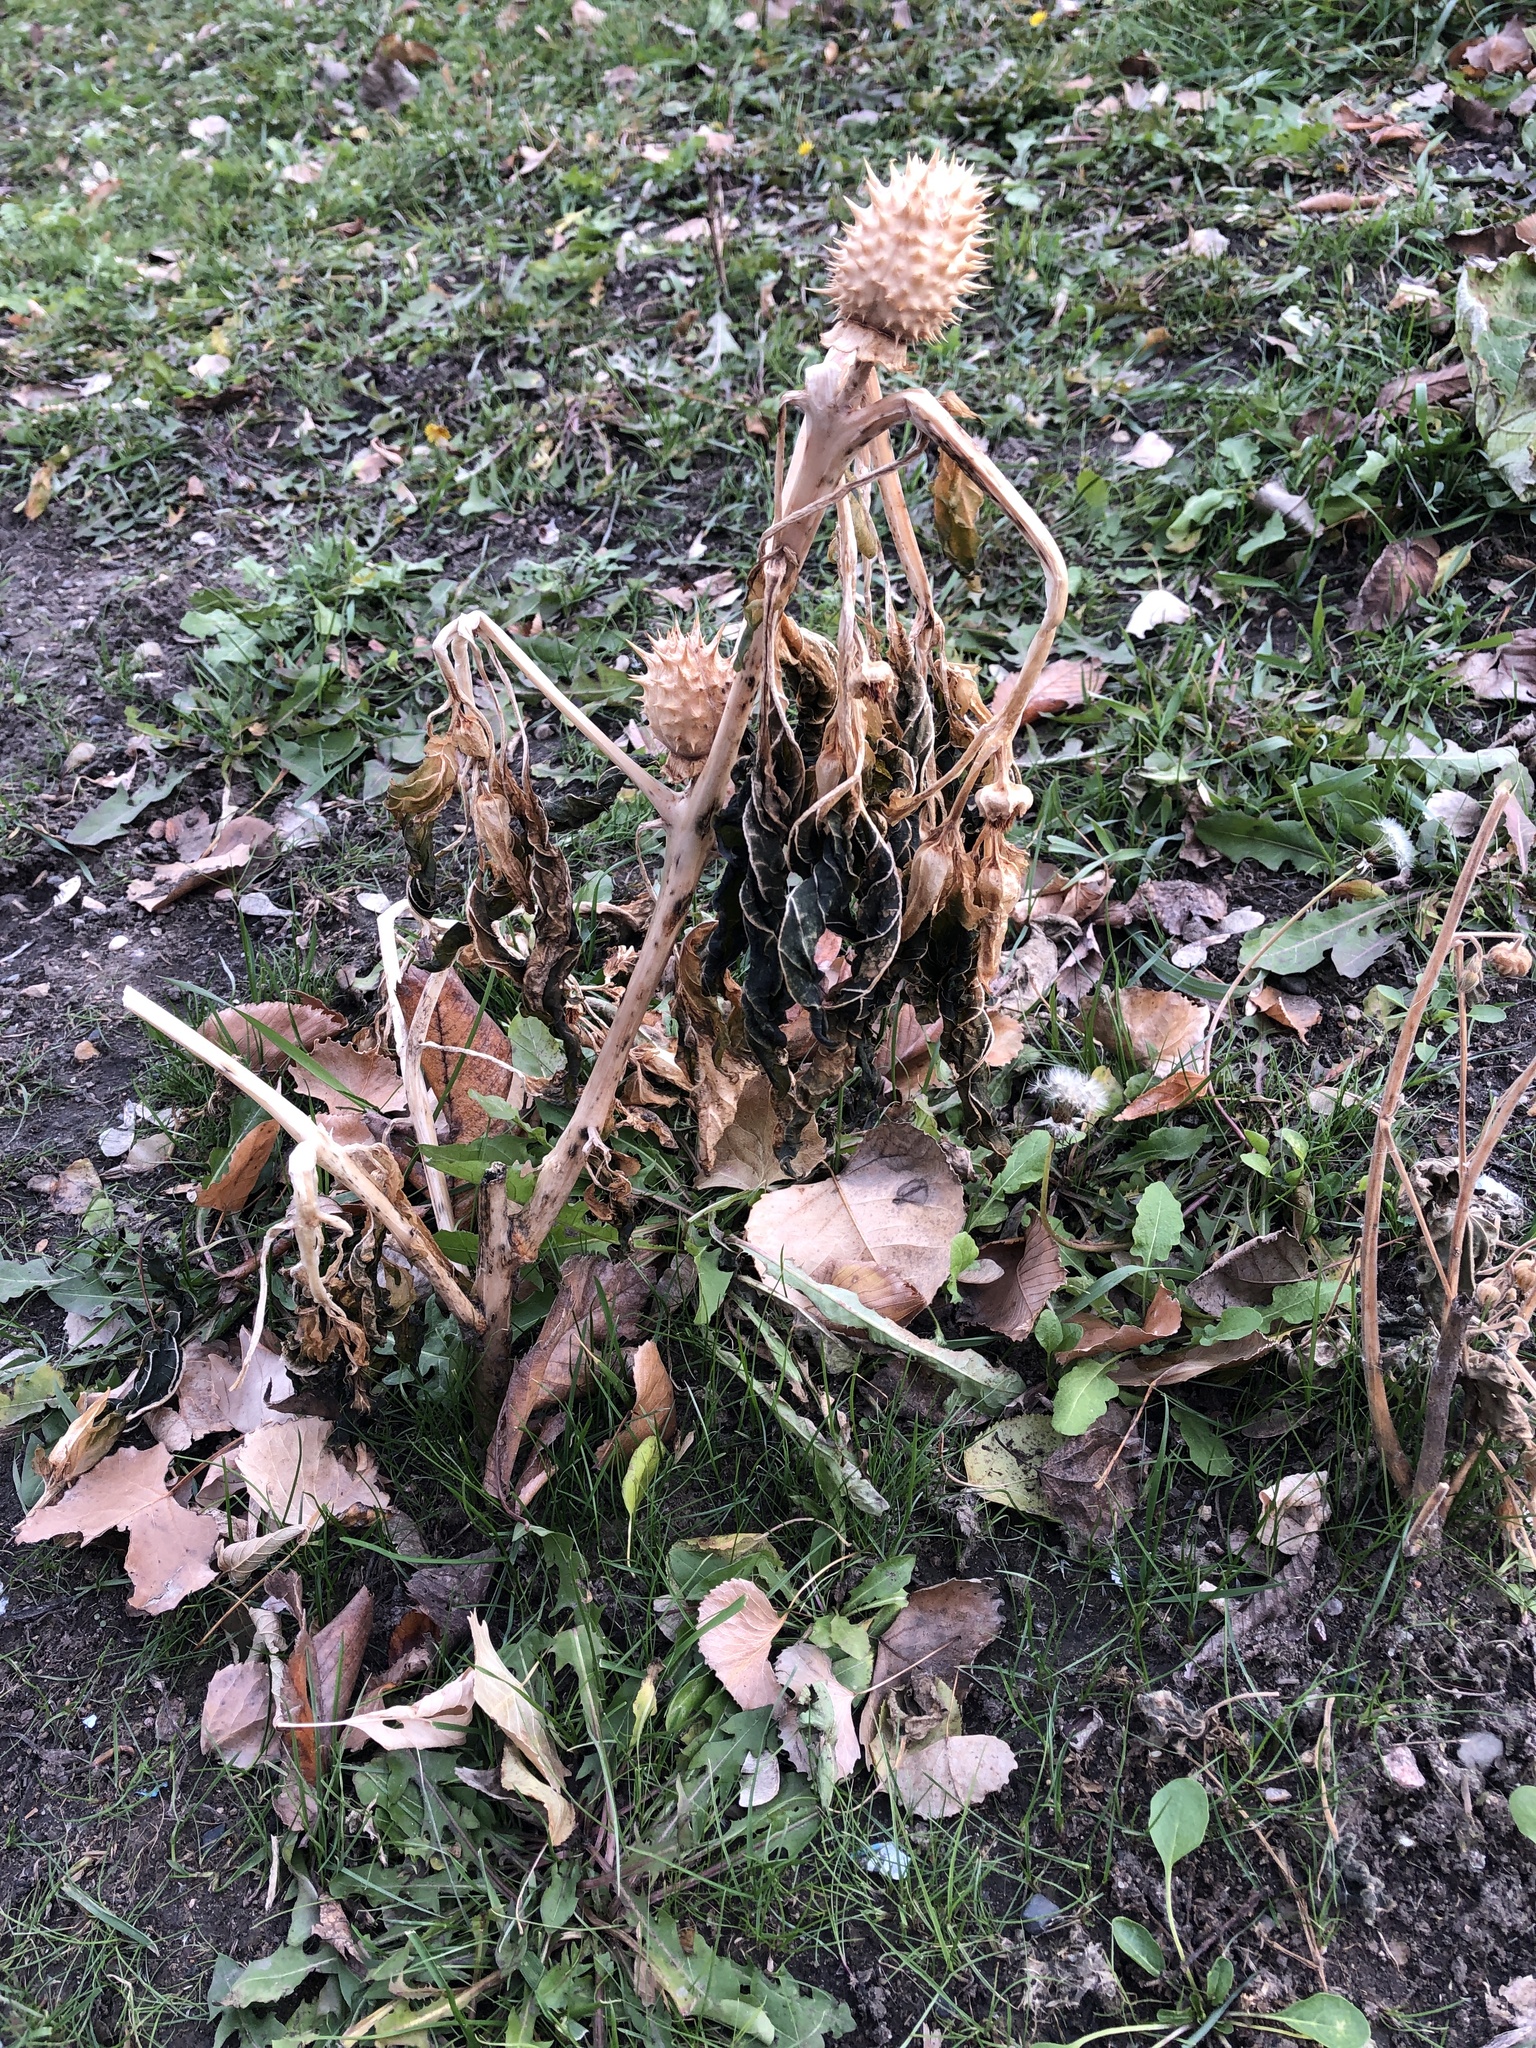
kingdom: Plantae
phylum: Tracheophyta
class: Magnoliopsida
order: Solanales
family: Solanaceae
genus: Datura
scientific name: Datura stramonium
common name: Thorn-apple
